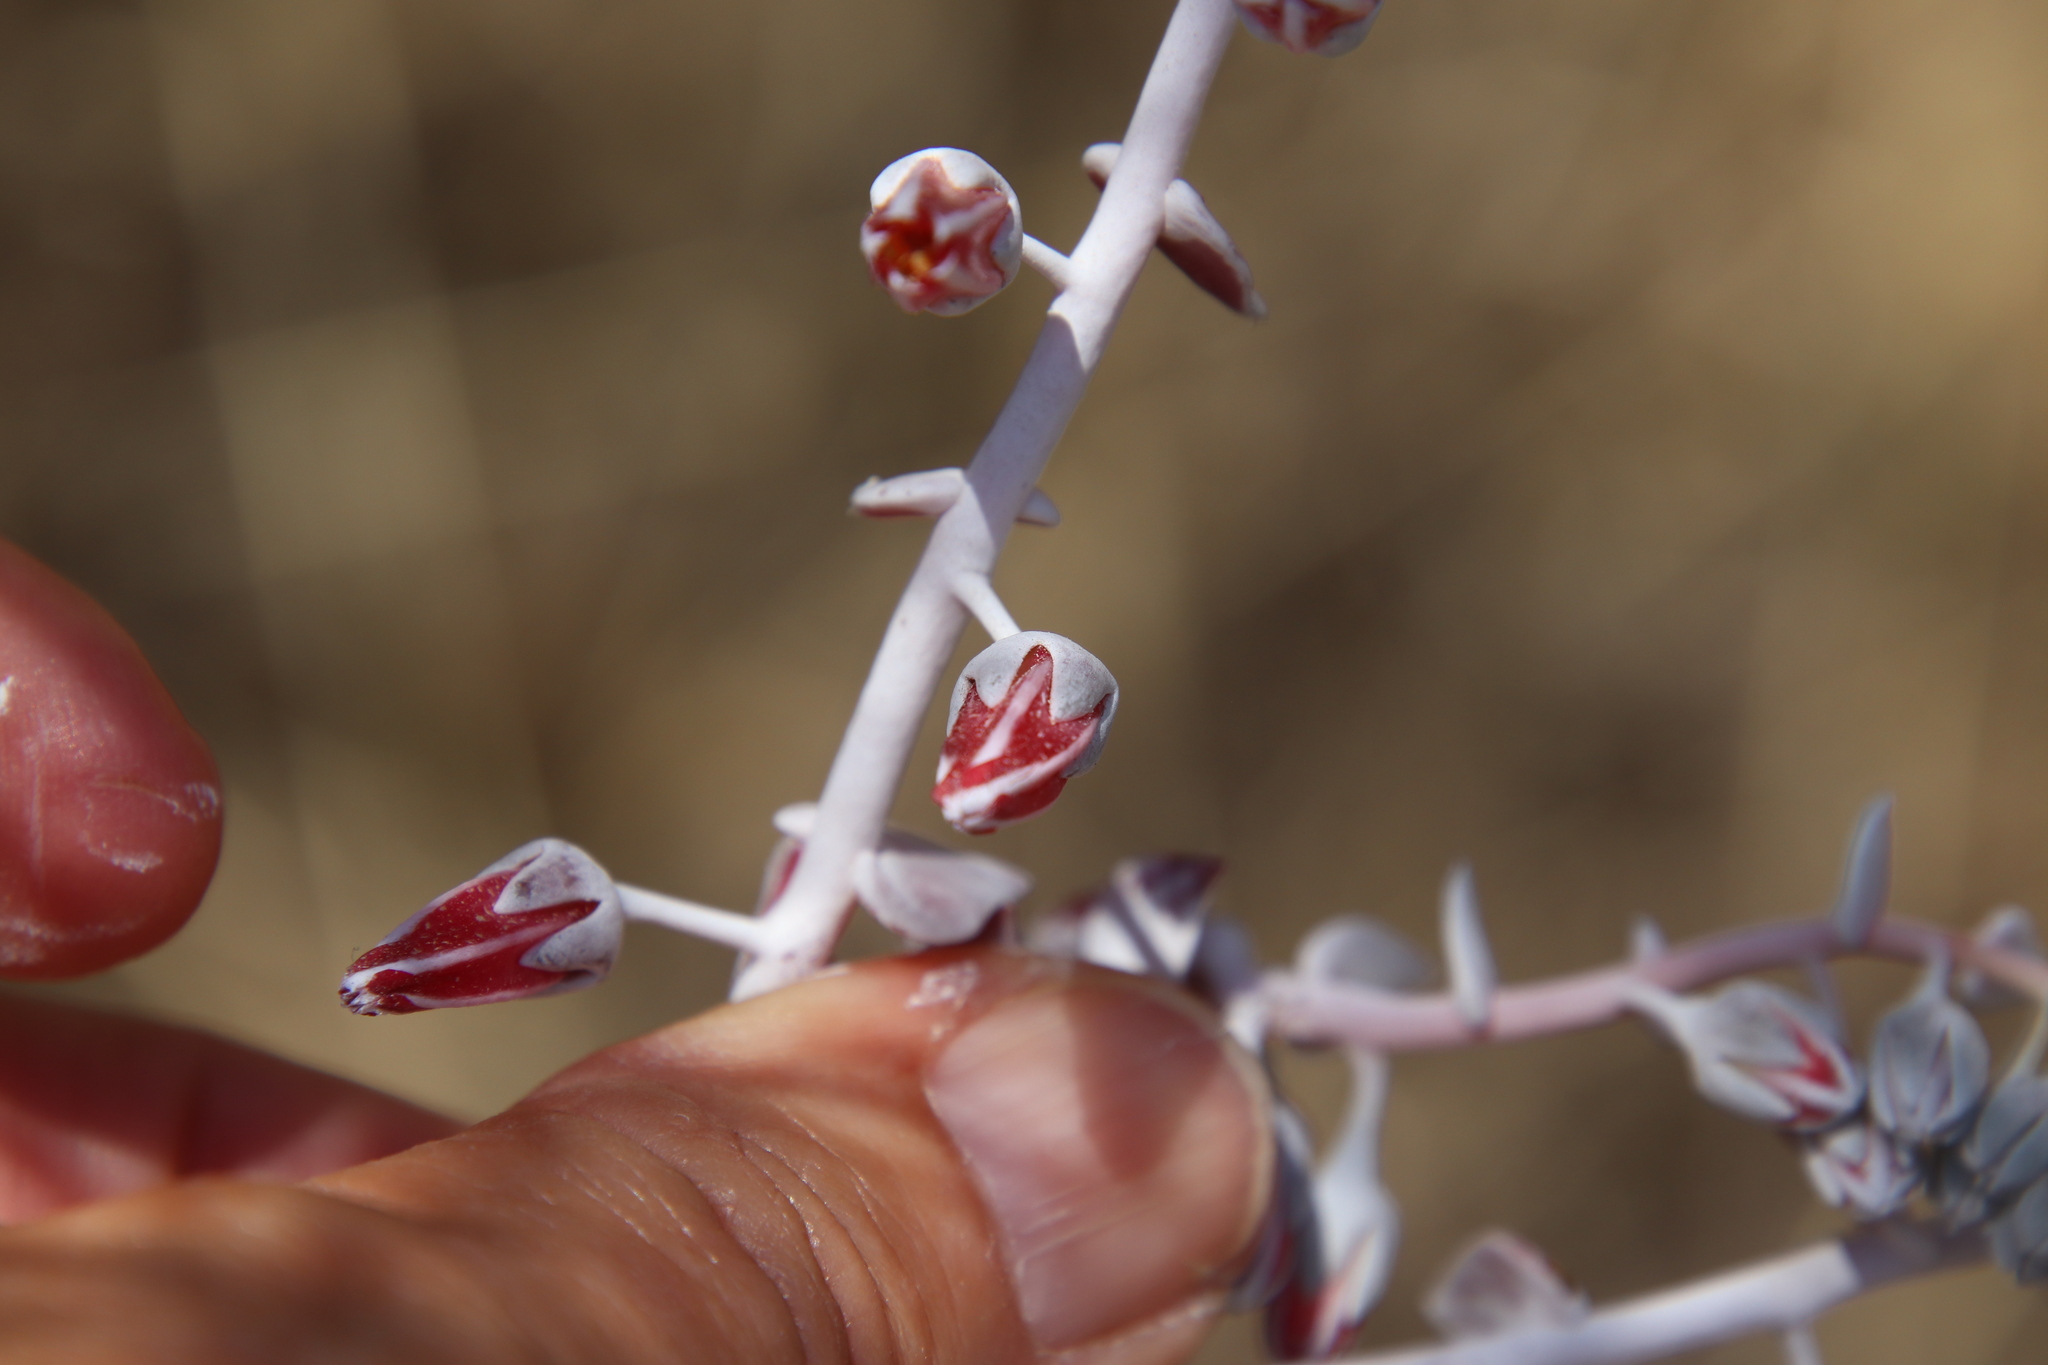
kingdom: Plantae
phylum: Tracheophyta
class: Magnoliopsida
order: Saxifragales
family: Crassulaceae
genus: Dudleya
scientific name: Dudleya pulverulenta
